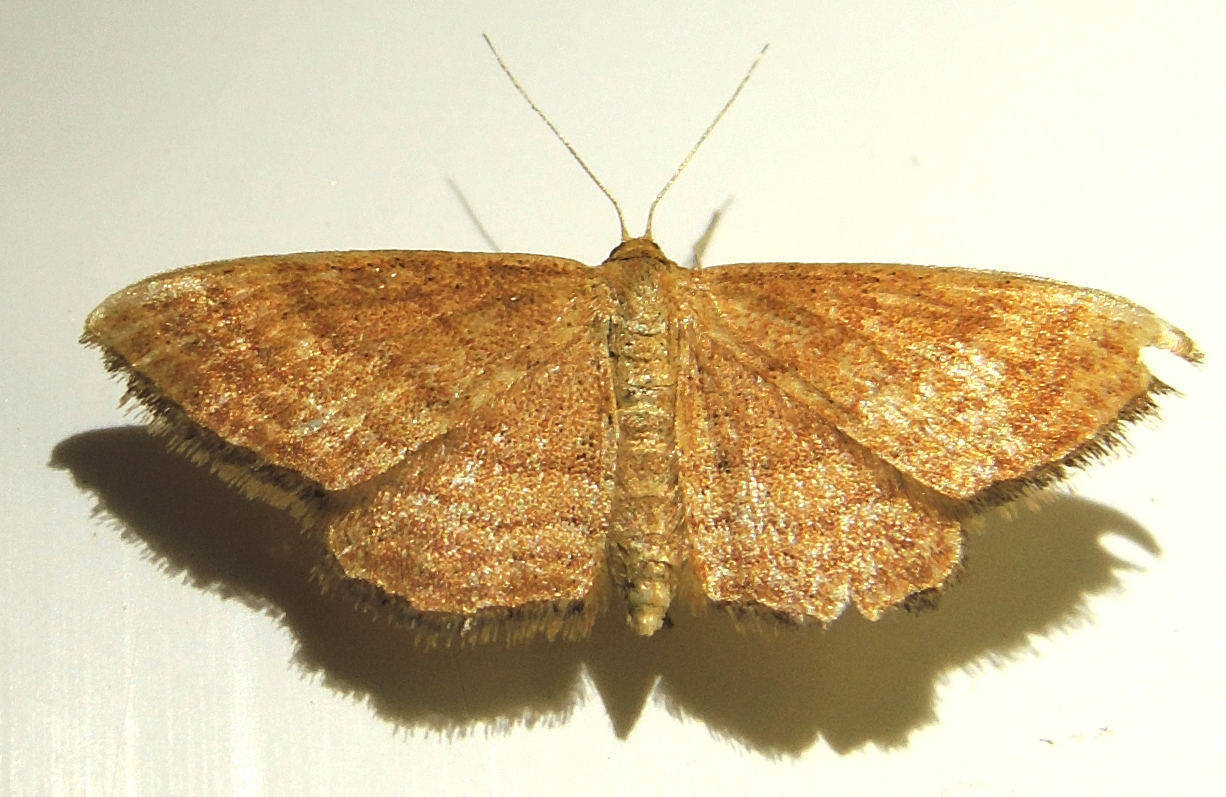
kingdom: Animalia
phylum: Arthropoda
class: Insecta
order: Lepidoptera
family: Geometridae
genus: Idaea
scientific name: Idaea ochrata
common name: Bright wave
